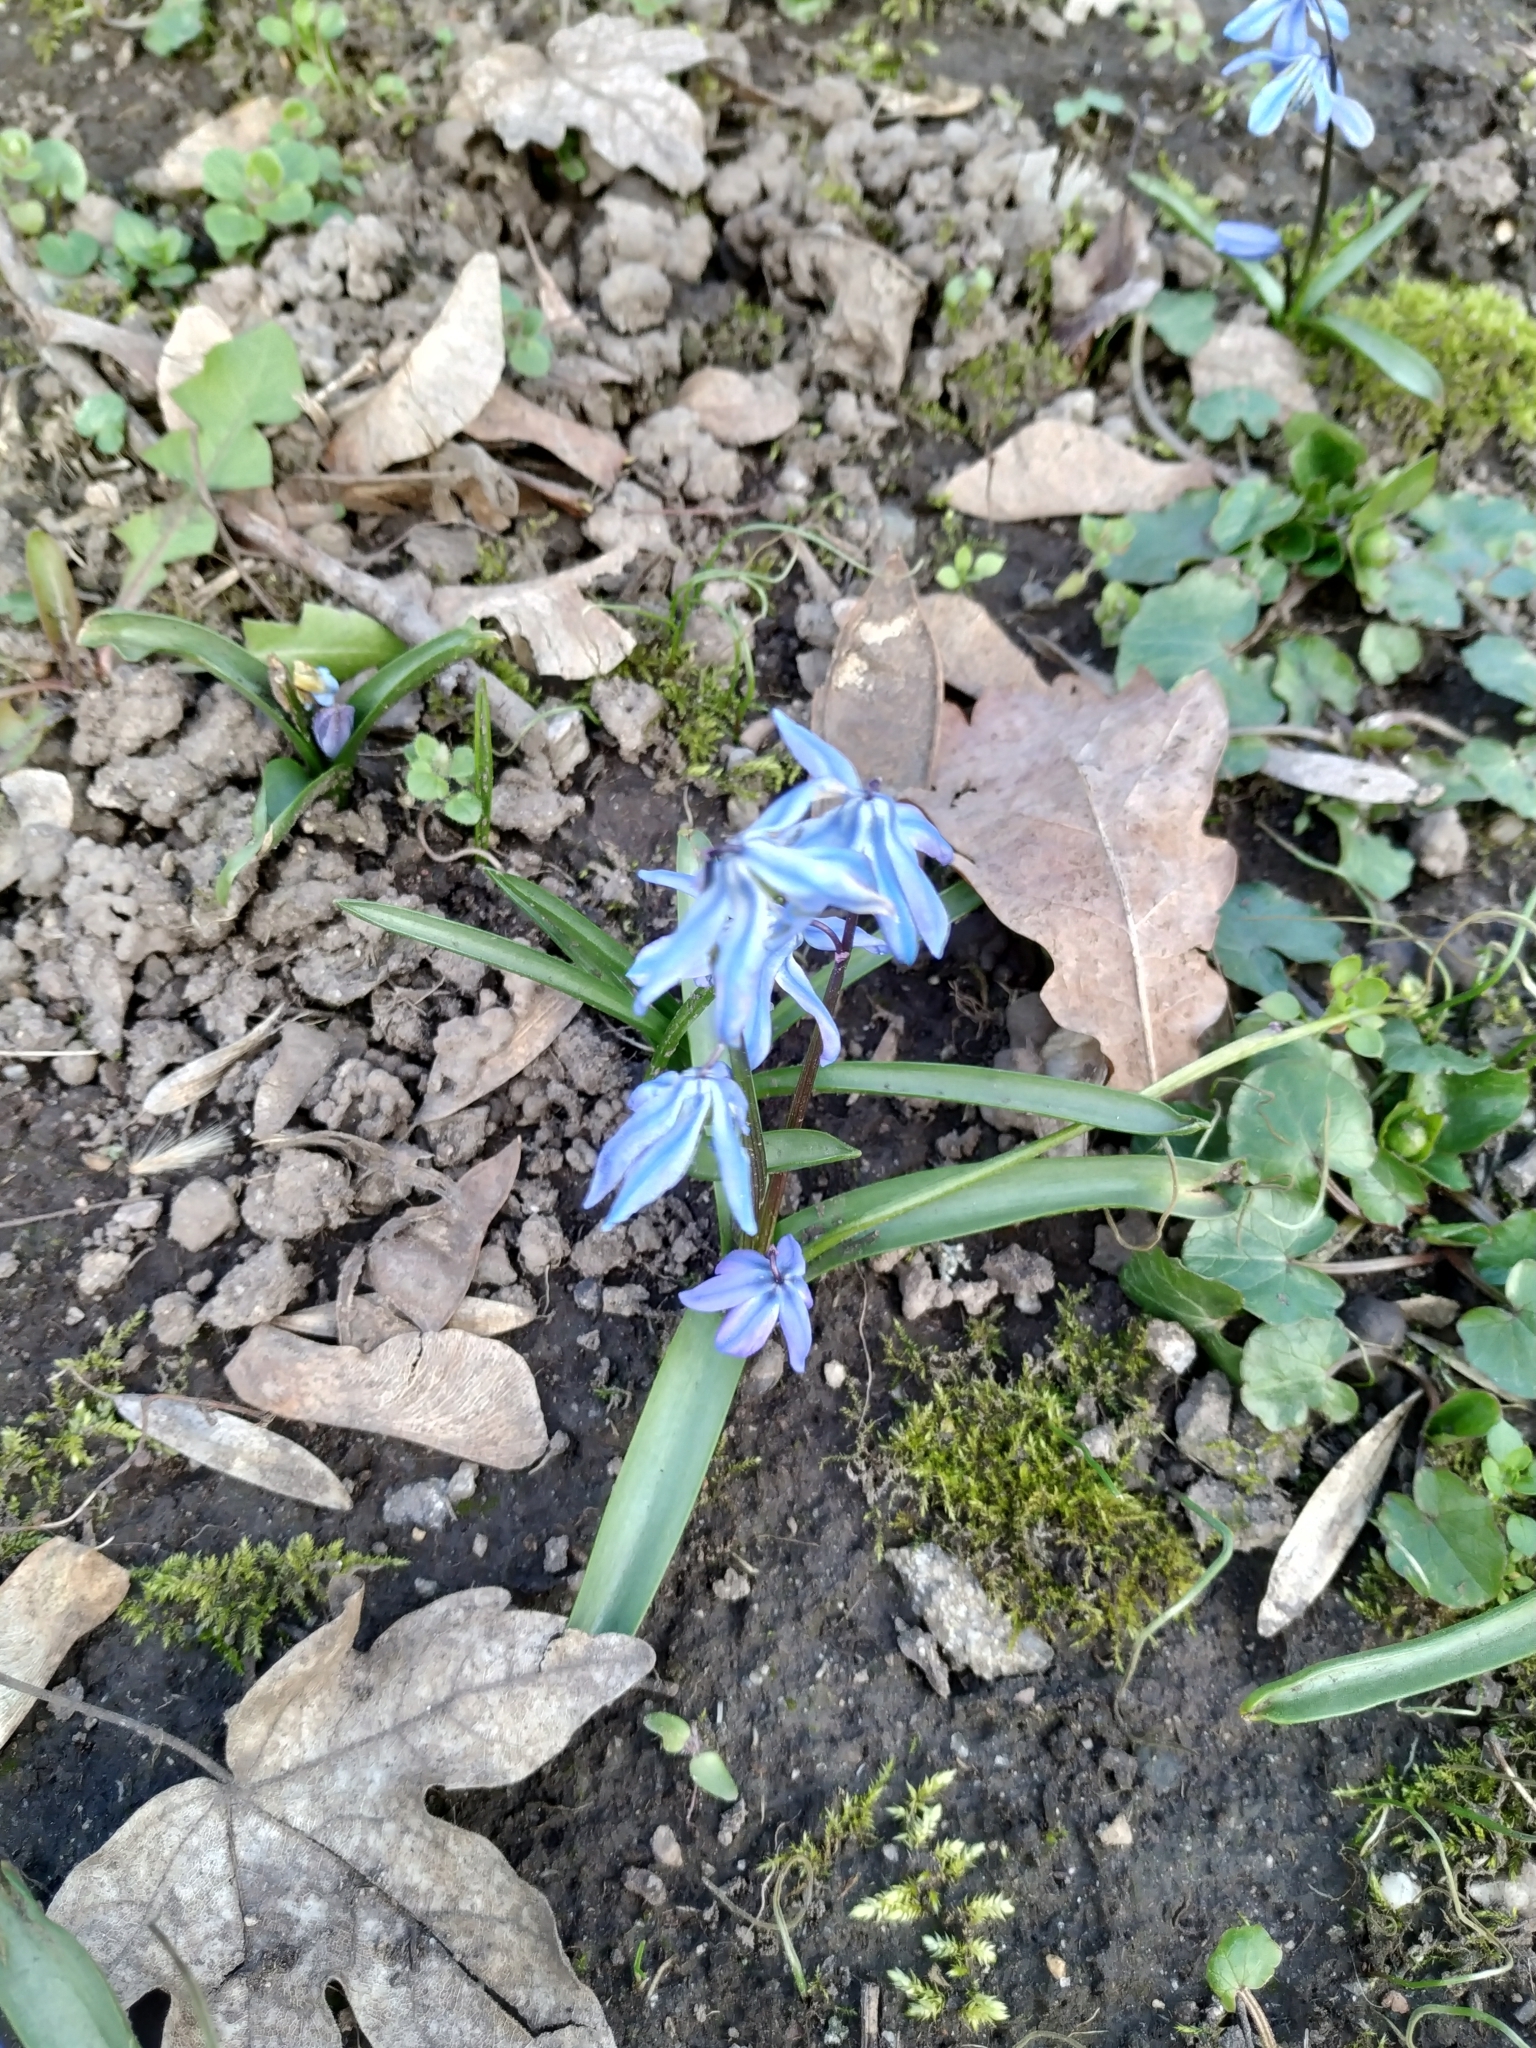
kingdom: Plantae
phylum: Tracheophyta
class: Liliopsida
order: Asparagales
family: Asparagaceae
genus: Scilla
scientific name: Scilla siberica
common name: Siberian squill
